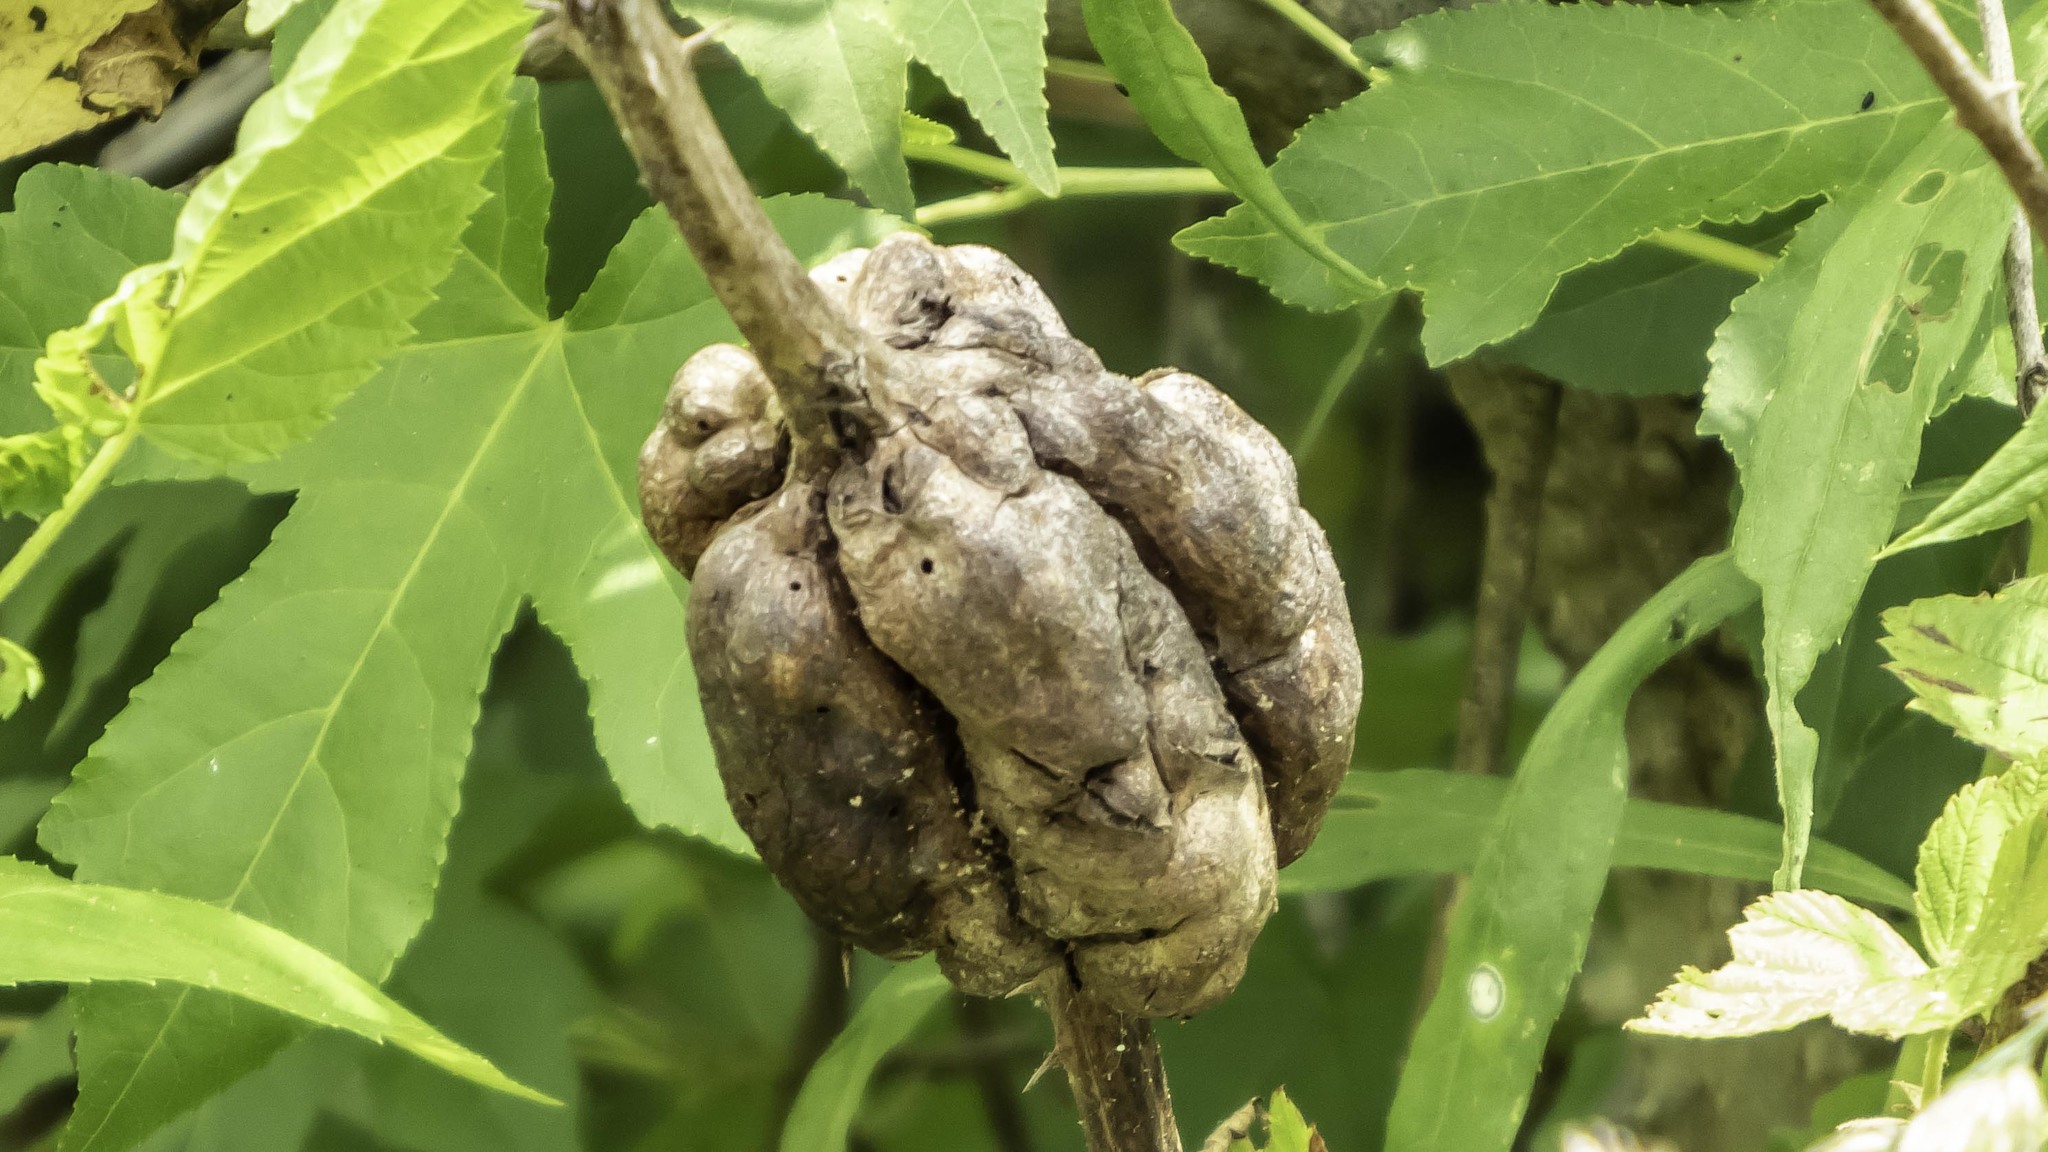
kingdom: Animalia
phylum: Arthropoda
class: Insecta
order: Hymenoptera
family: Cynipidae
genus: Diastrophus
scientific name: Diastrophus
